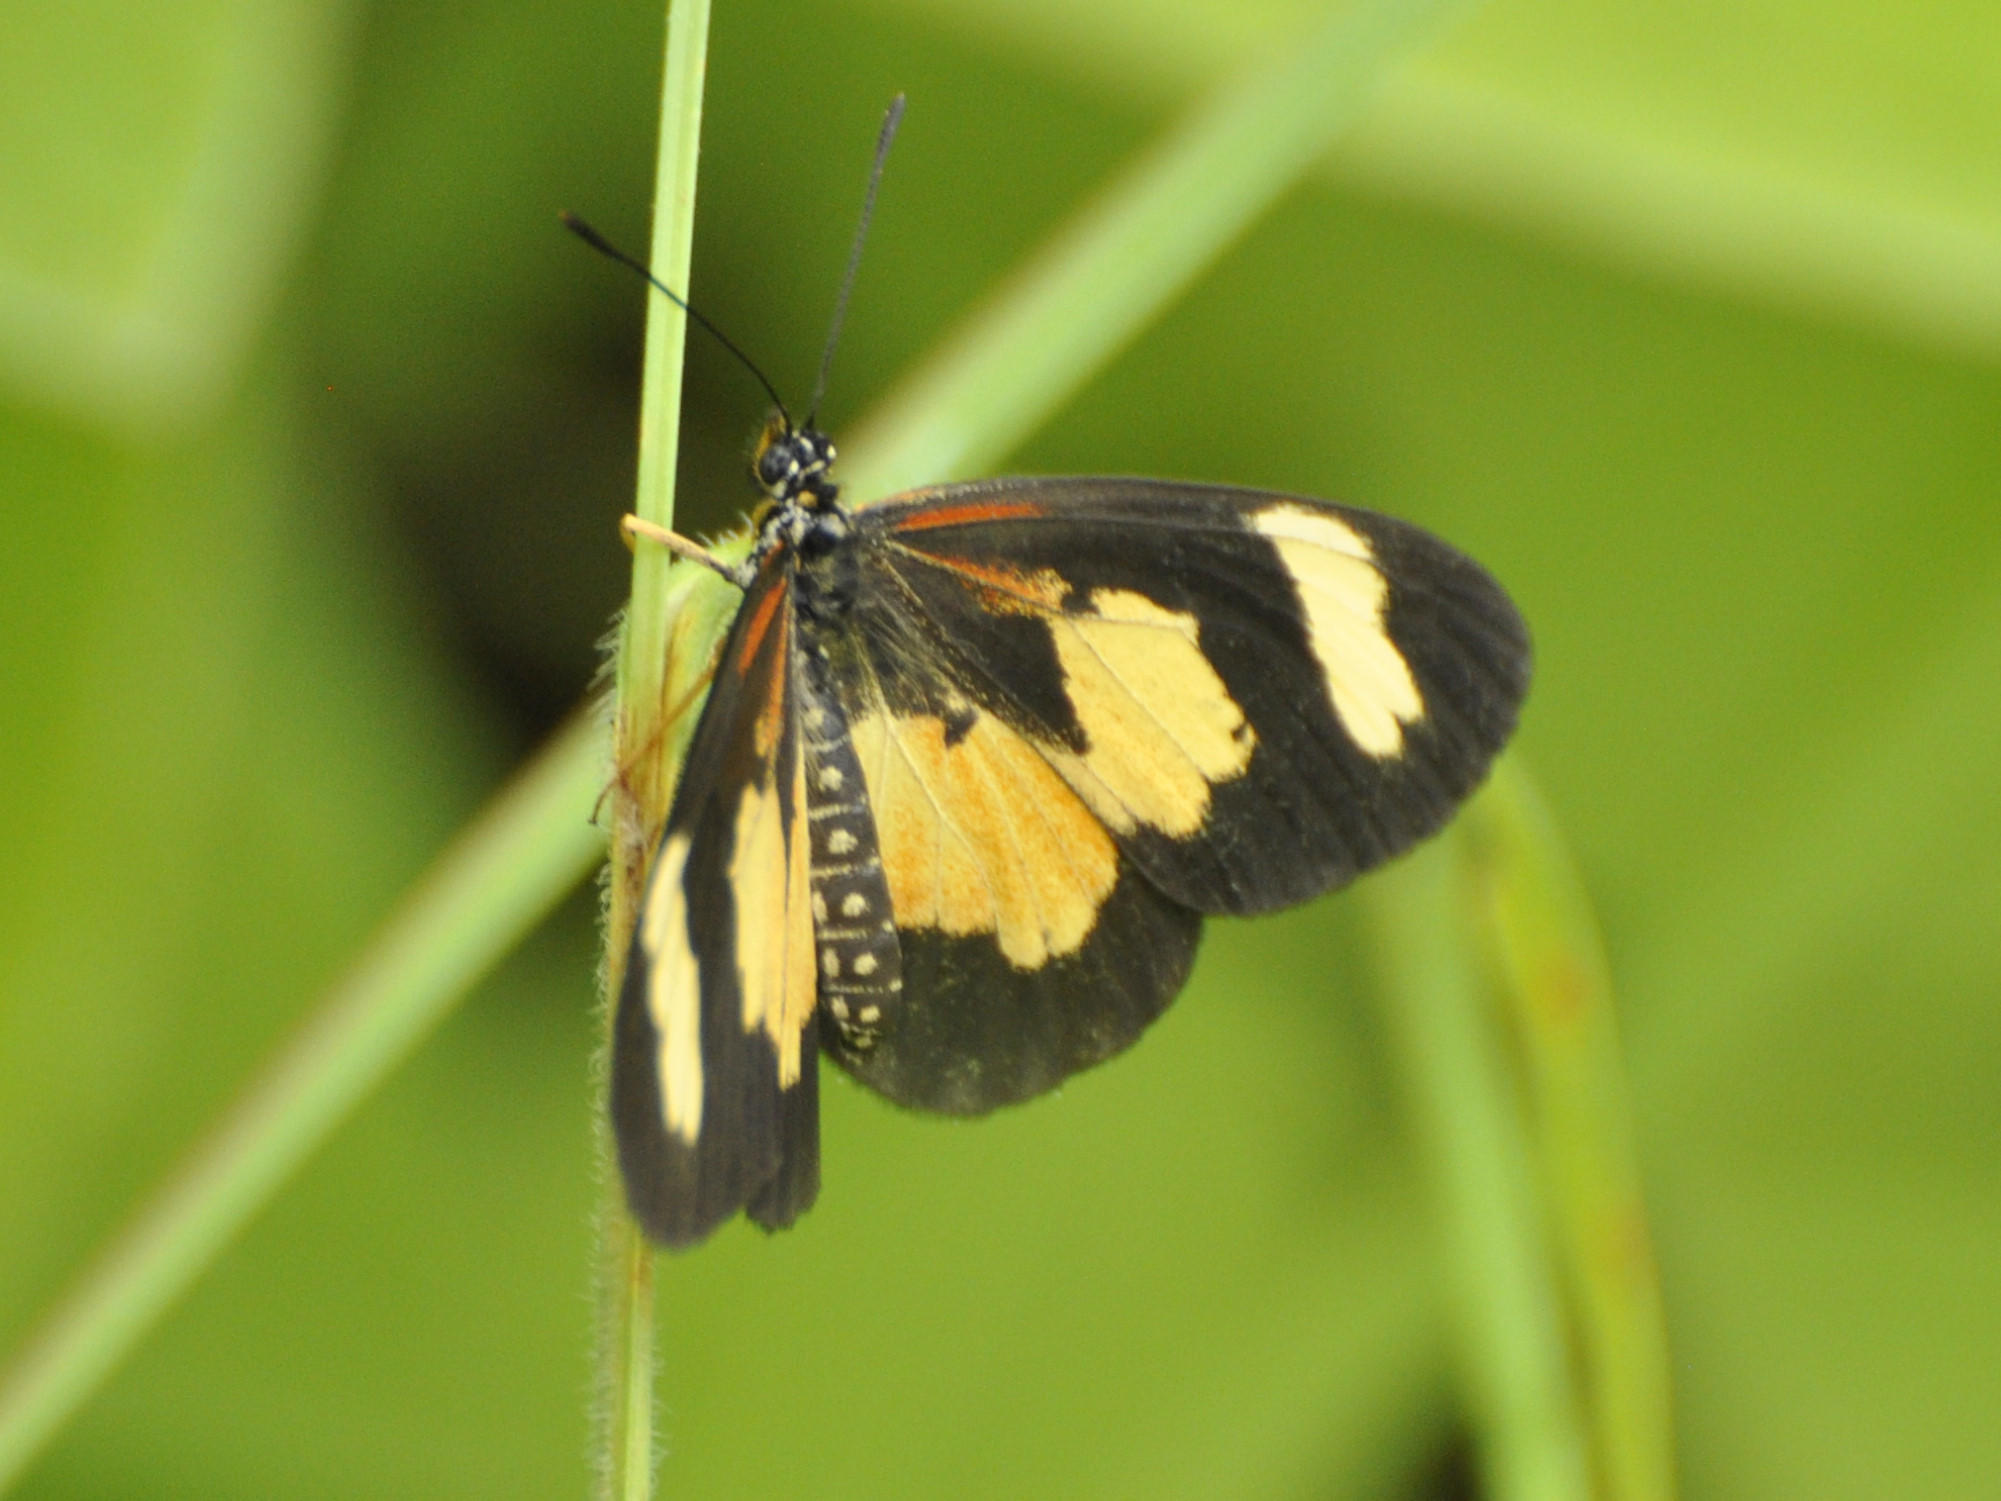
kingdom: Animalia
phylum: Arthropoda
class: Insecta
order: Lepidoptera
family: Nymphalidae
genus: Acraea
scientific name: Acraea cabira
